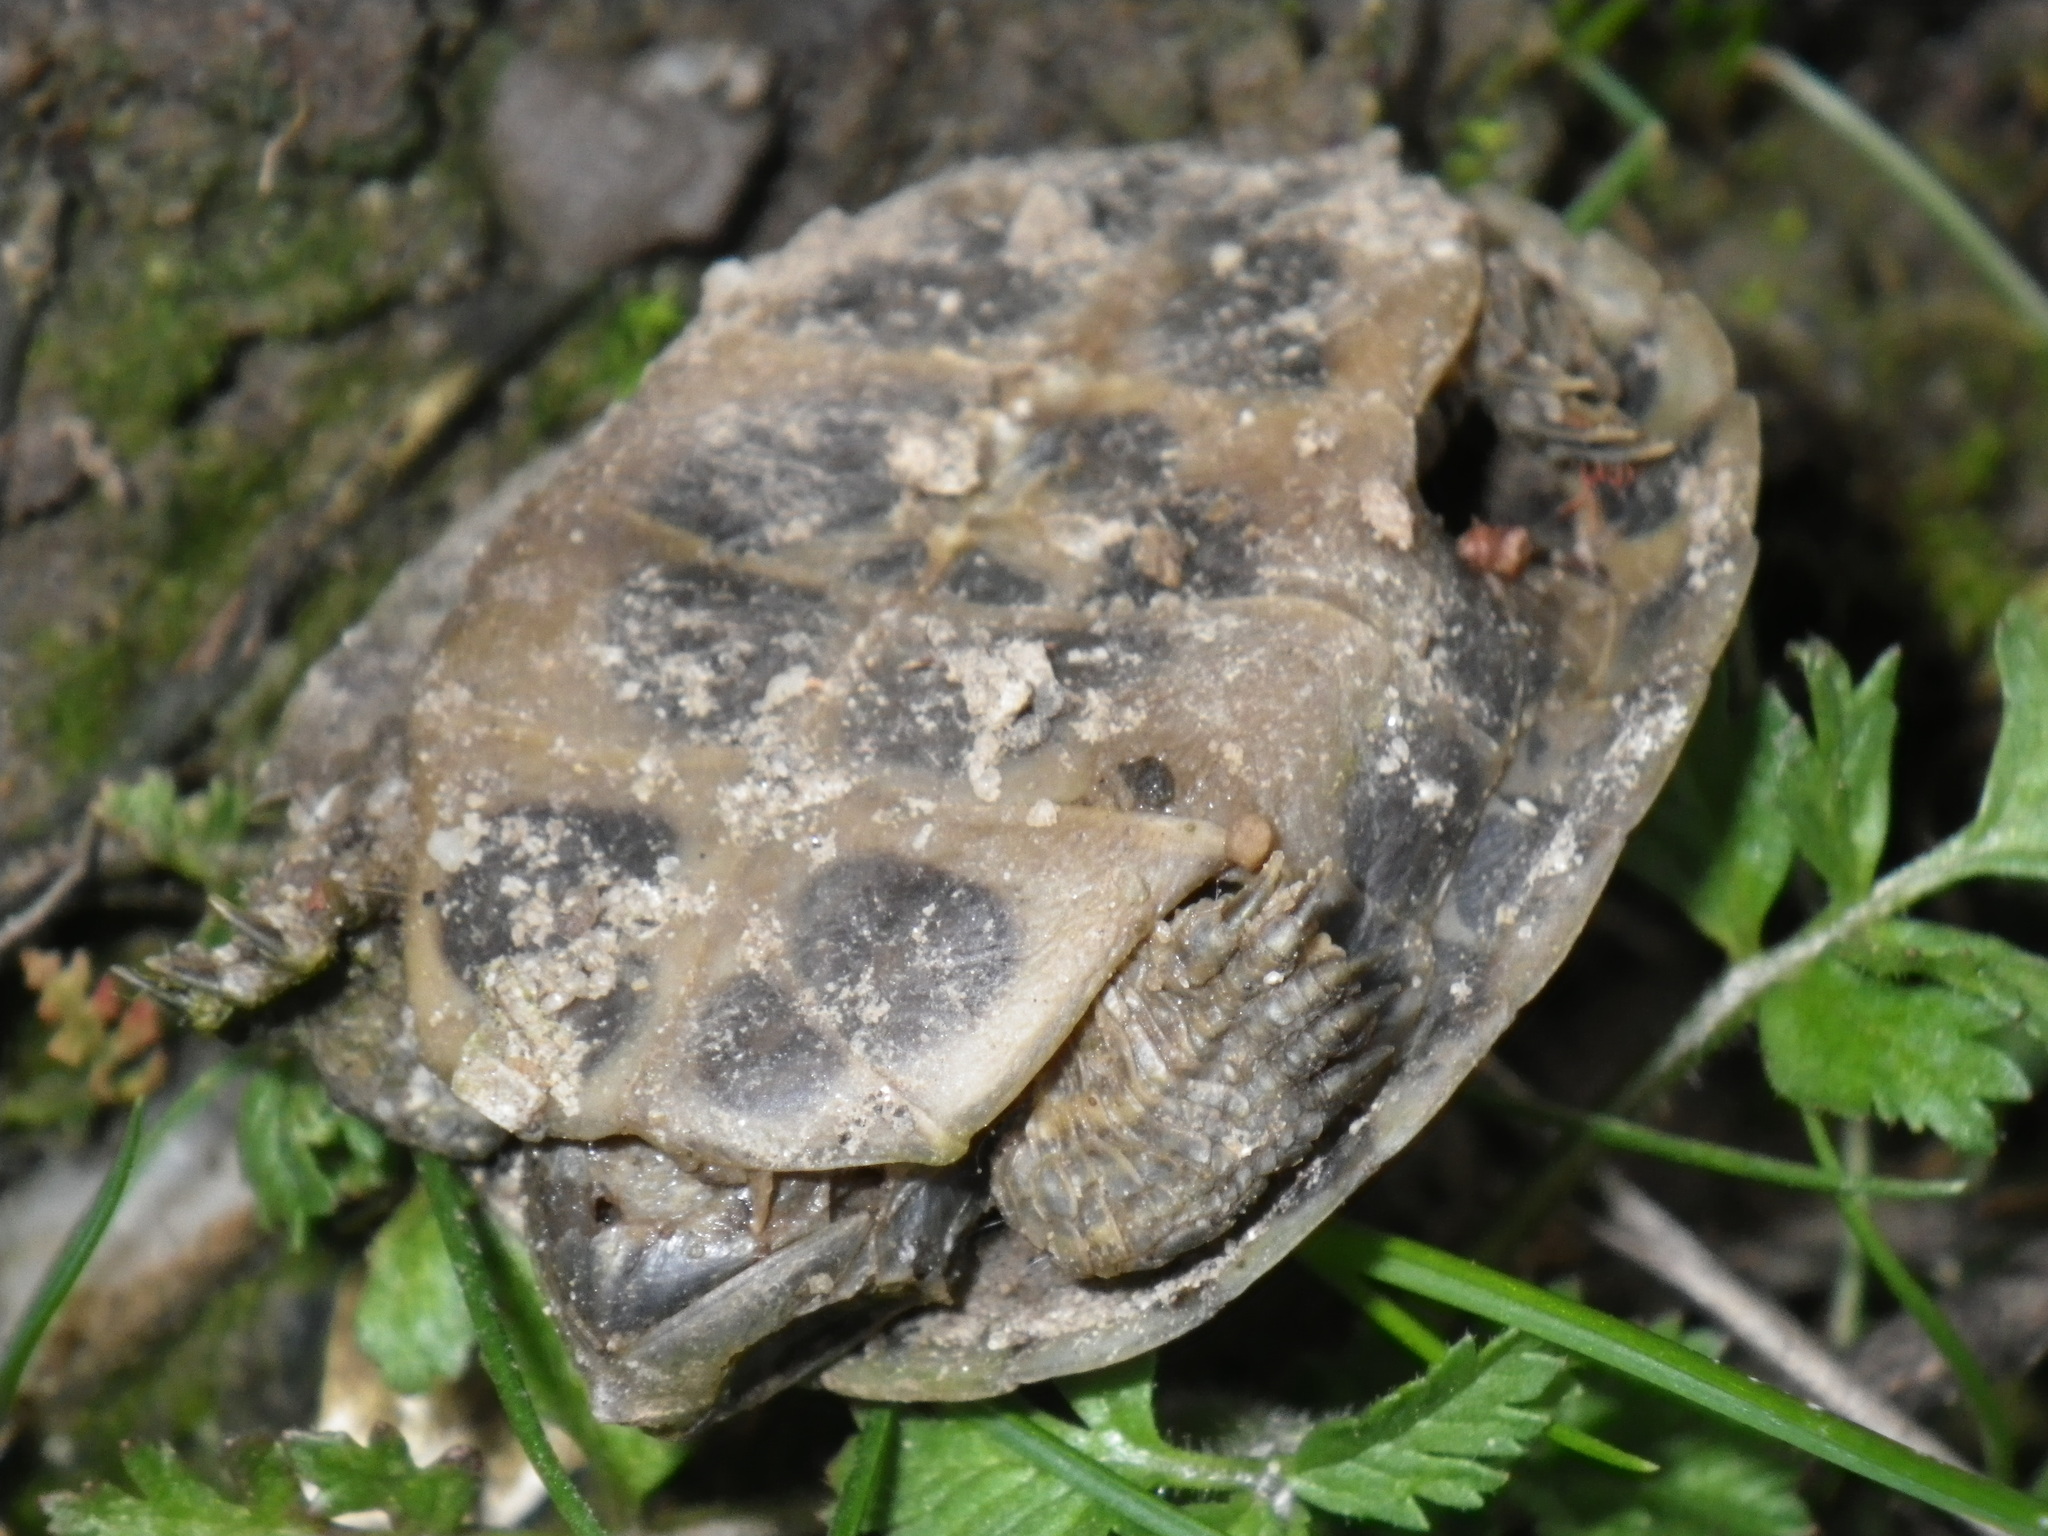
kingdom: Animalia
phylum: Chordata
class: Testudines
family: Emydidae
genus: Trachemys
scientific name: Trachemys scripta
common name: Slider
